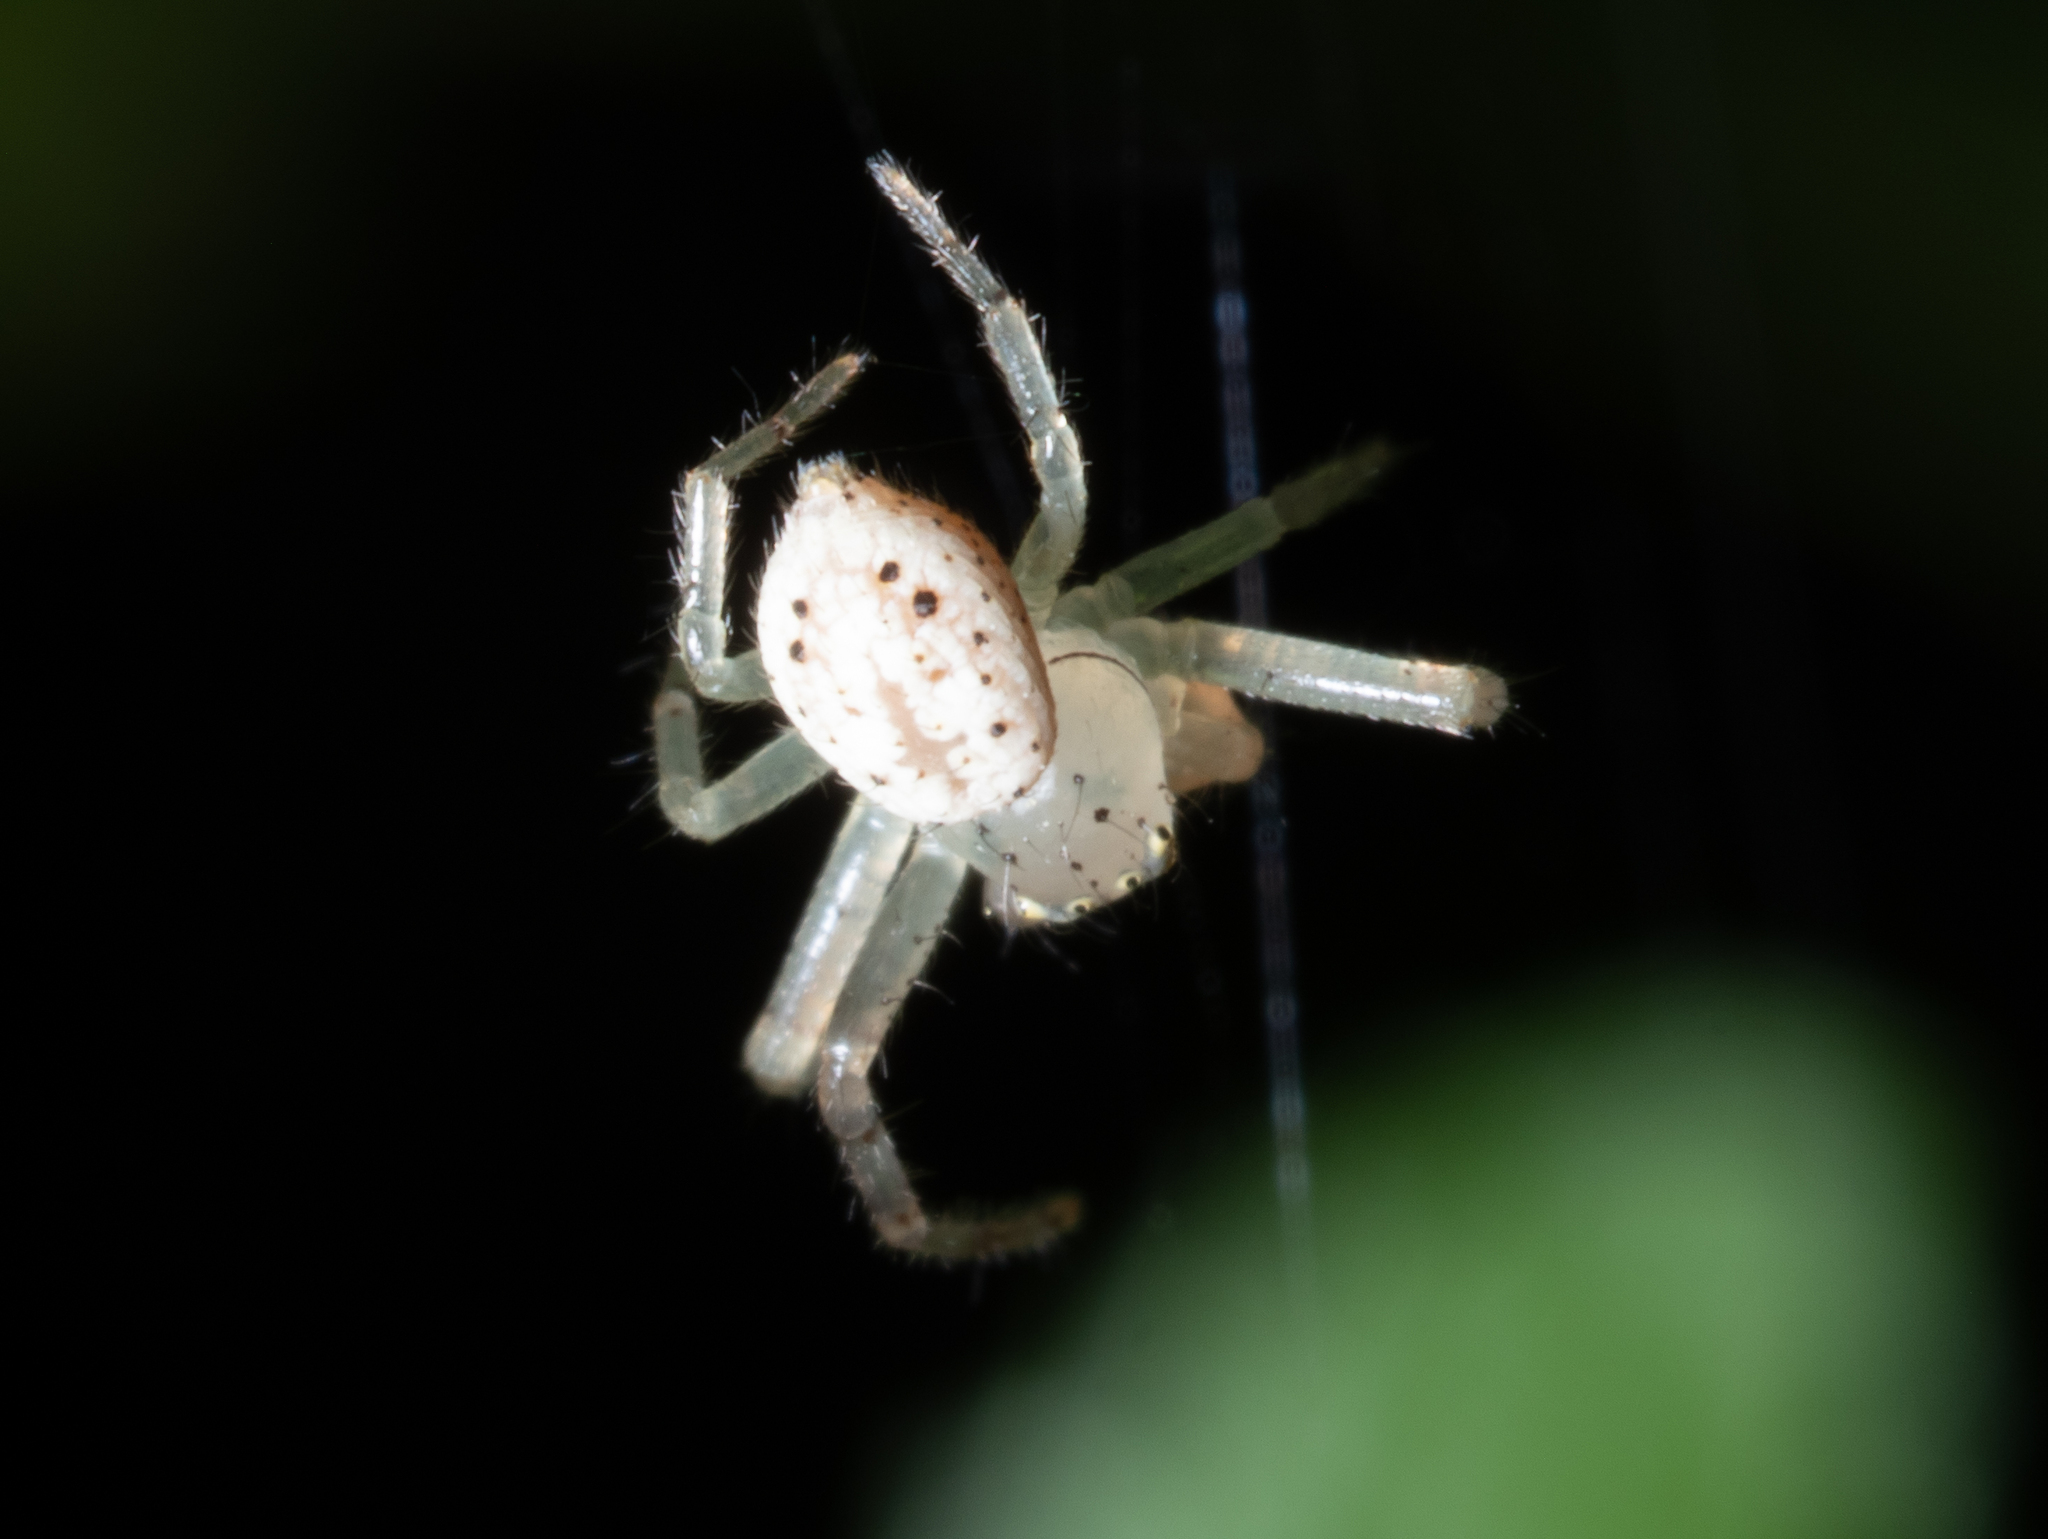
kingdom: Animalia
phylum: Arthropoda
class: Arachnida
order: Araneae
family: Thomisidae
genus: Australomisidia
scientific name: Australomisidia
